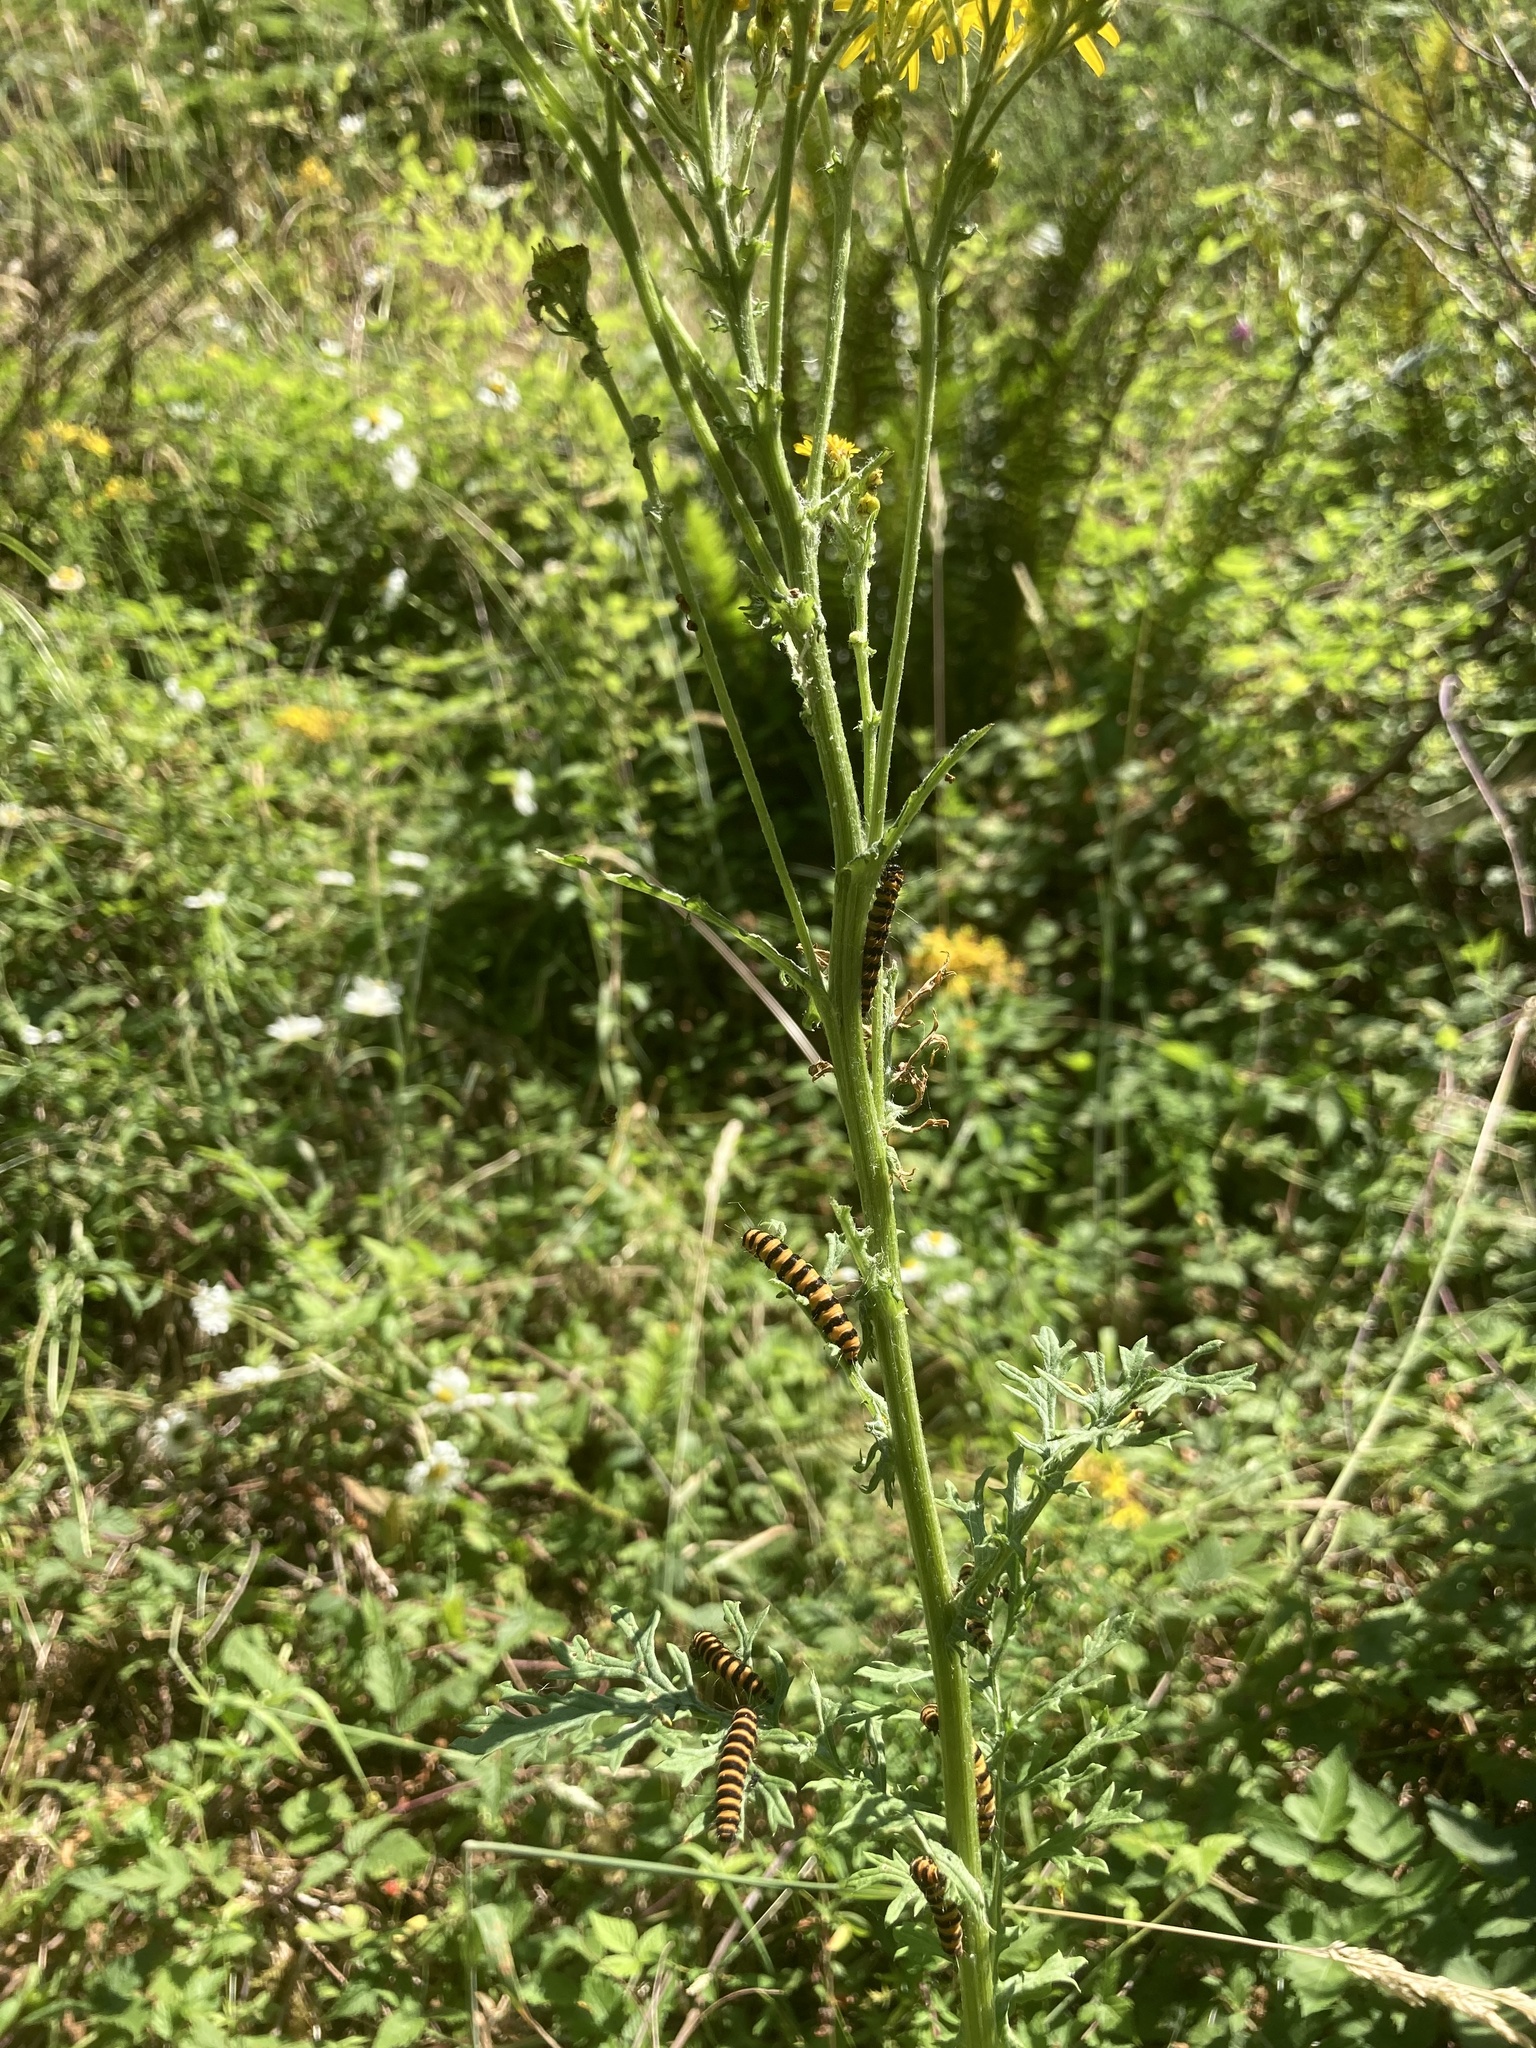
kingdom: Plantae
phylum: Tracheophyta
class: Magnoliopsida
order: Asterales
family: Asteraceae
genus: Jacobaea
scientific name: Jacobaea vulgaris
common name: Stinking willie
